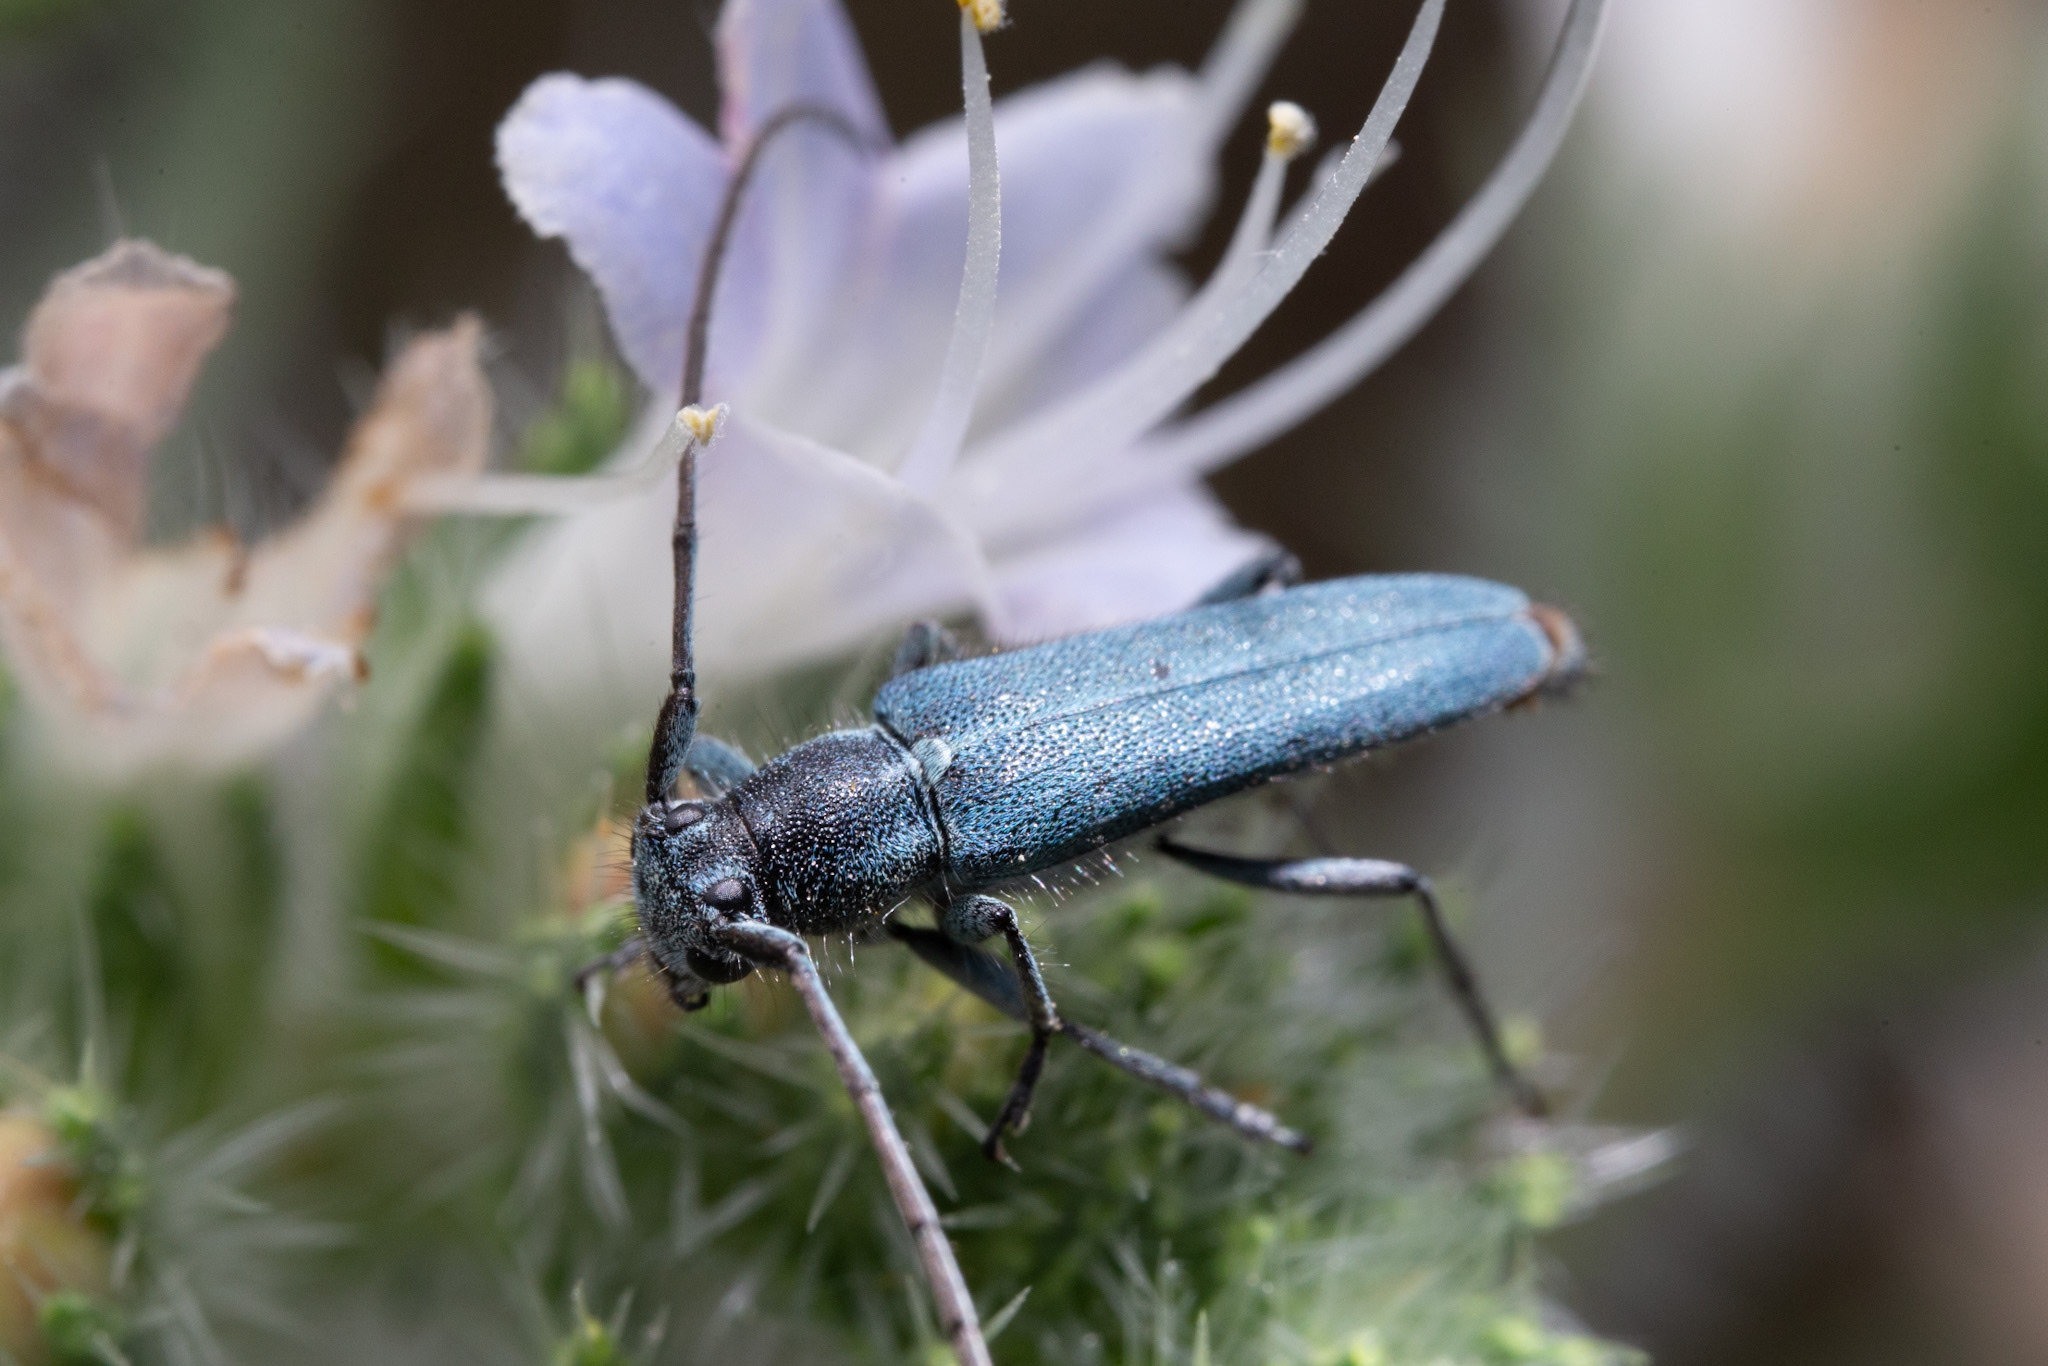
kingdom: Animalia
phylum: Arthropoda
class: Insecta
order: Coleoptera
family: Cerambycidae
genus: Phytoecia
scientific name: Phytoecia coerulescens
